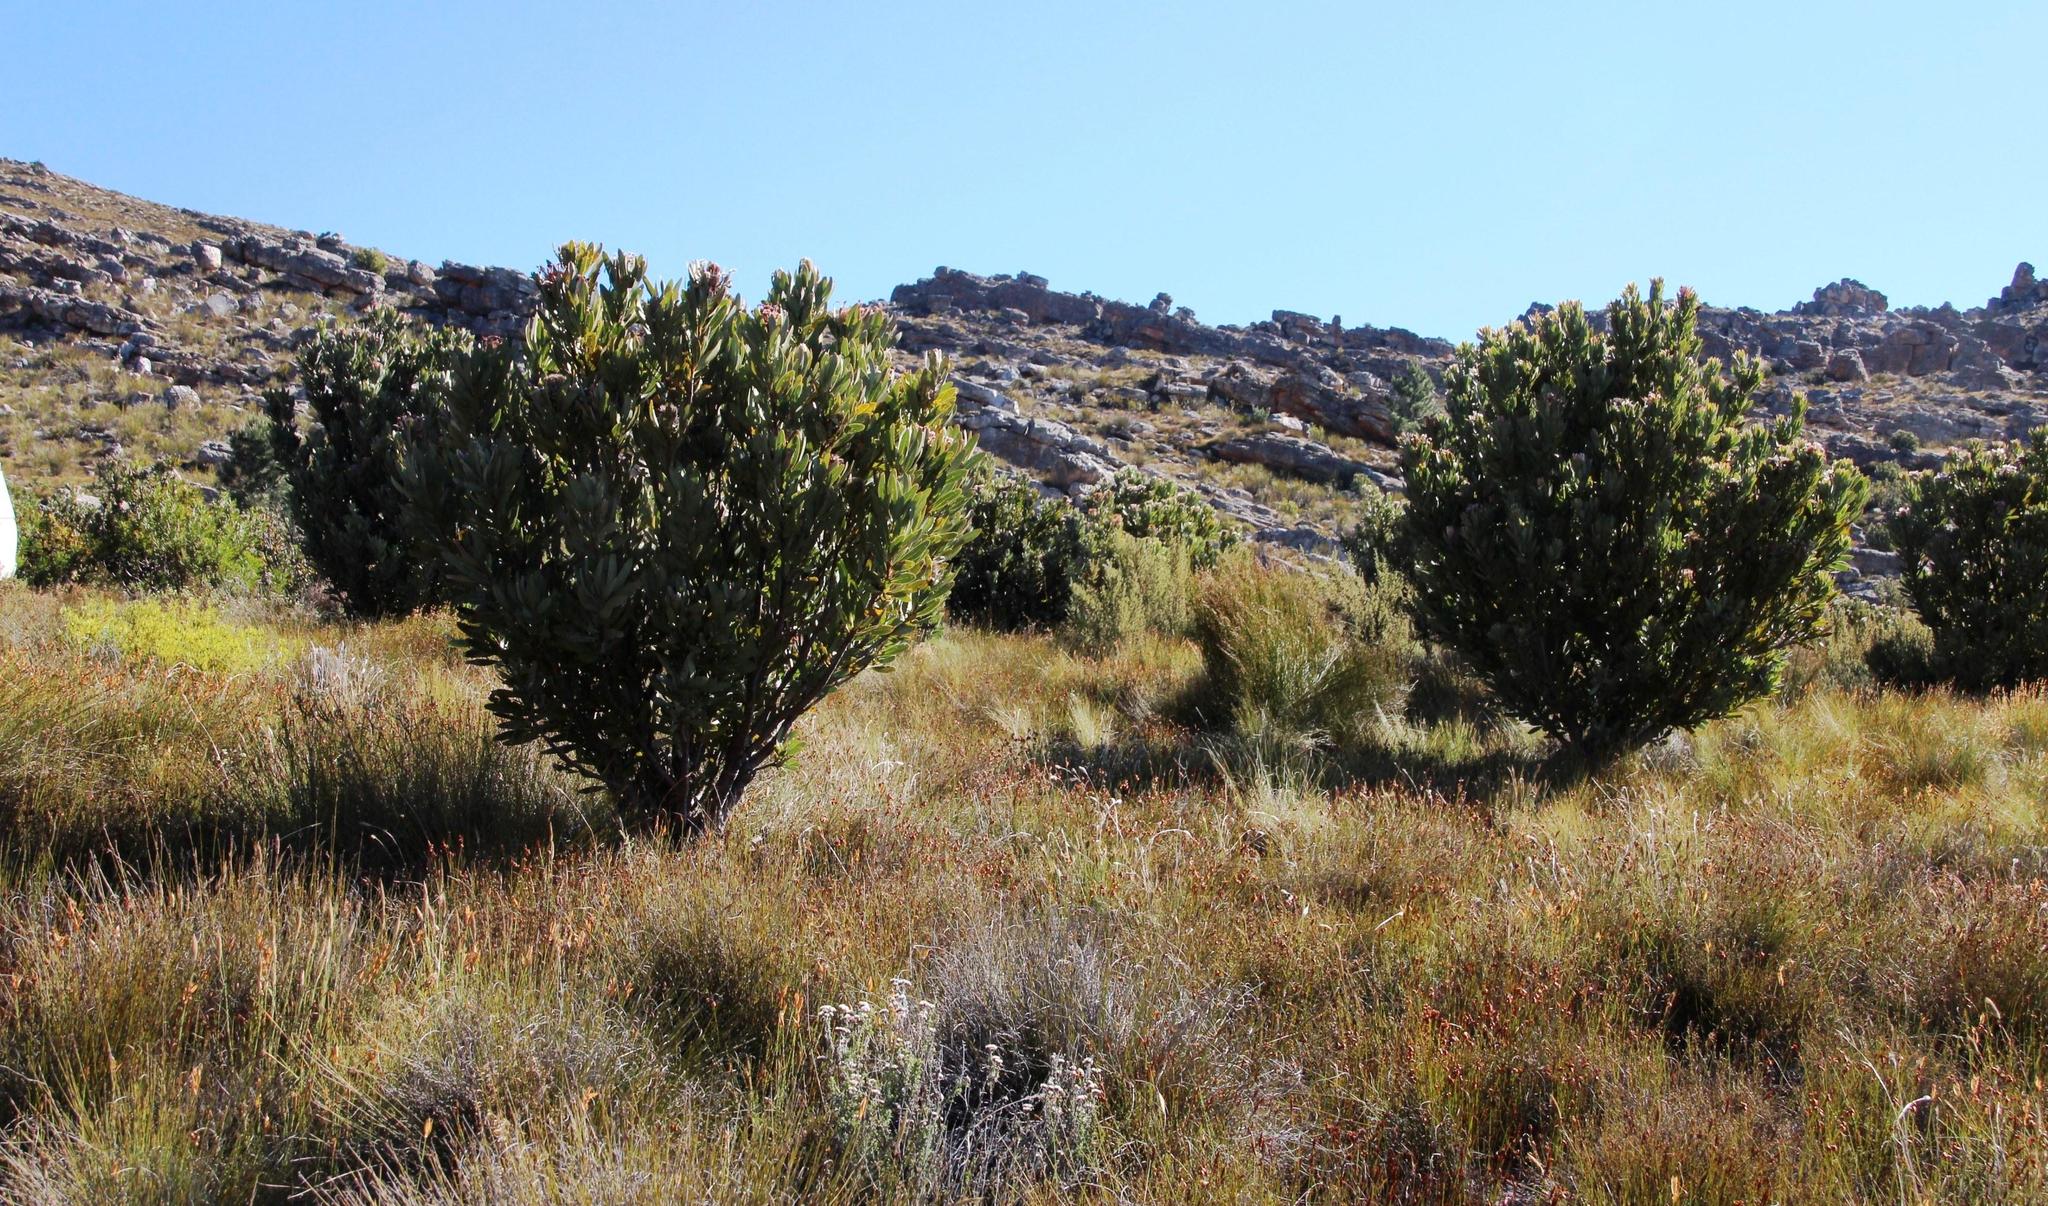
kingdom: Plantae
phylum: Tracheophyta
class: Magnoliopsida
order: Proteales
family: Proteaceae
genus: Protea
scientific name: Protea laurifolia
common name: Grey-leaf sugarbsh
